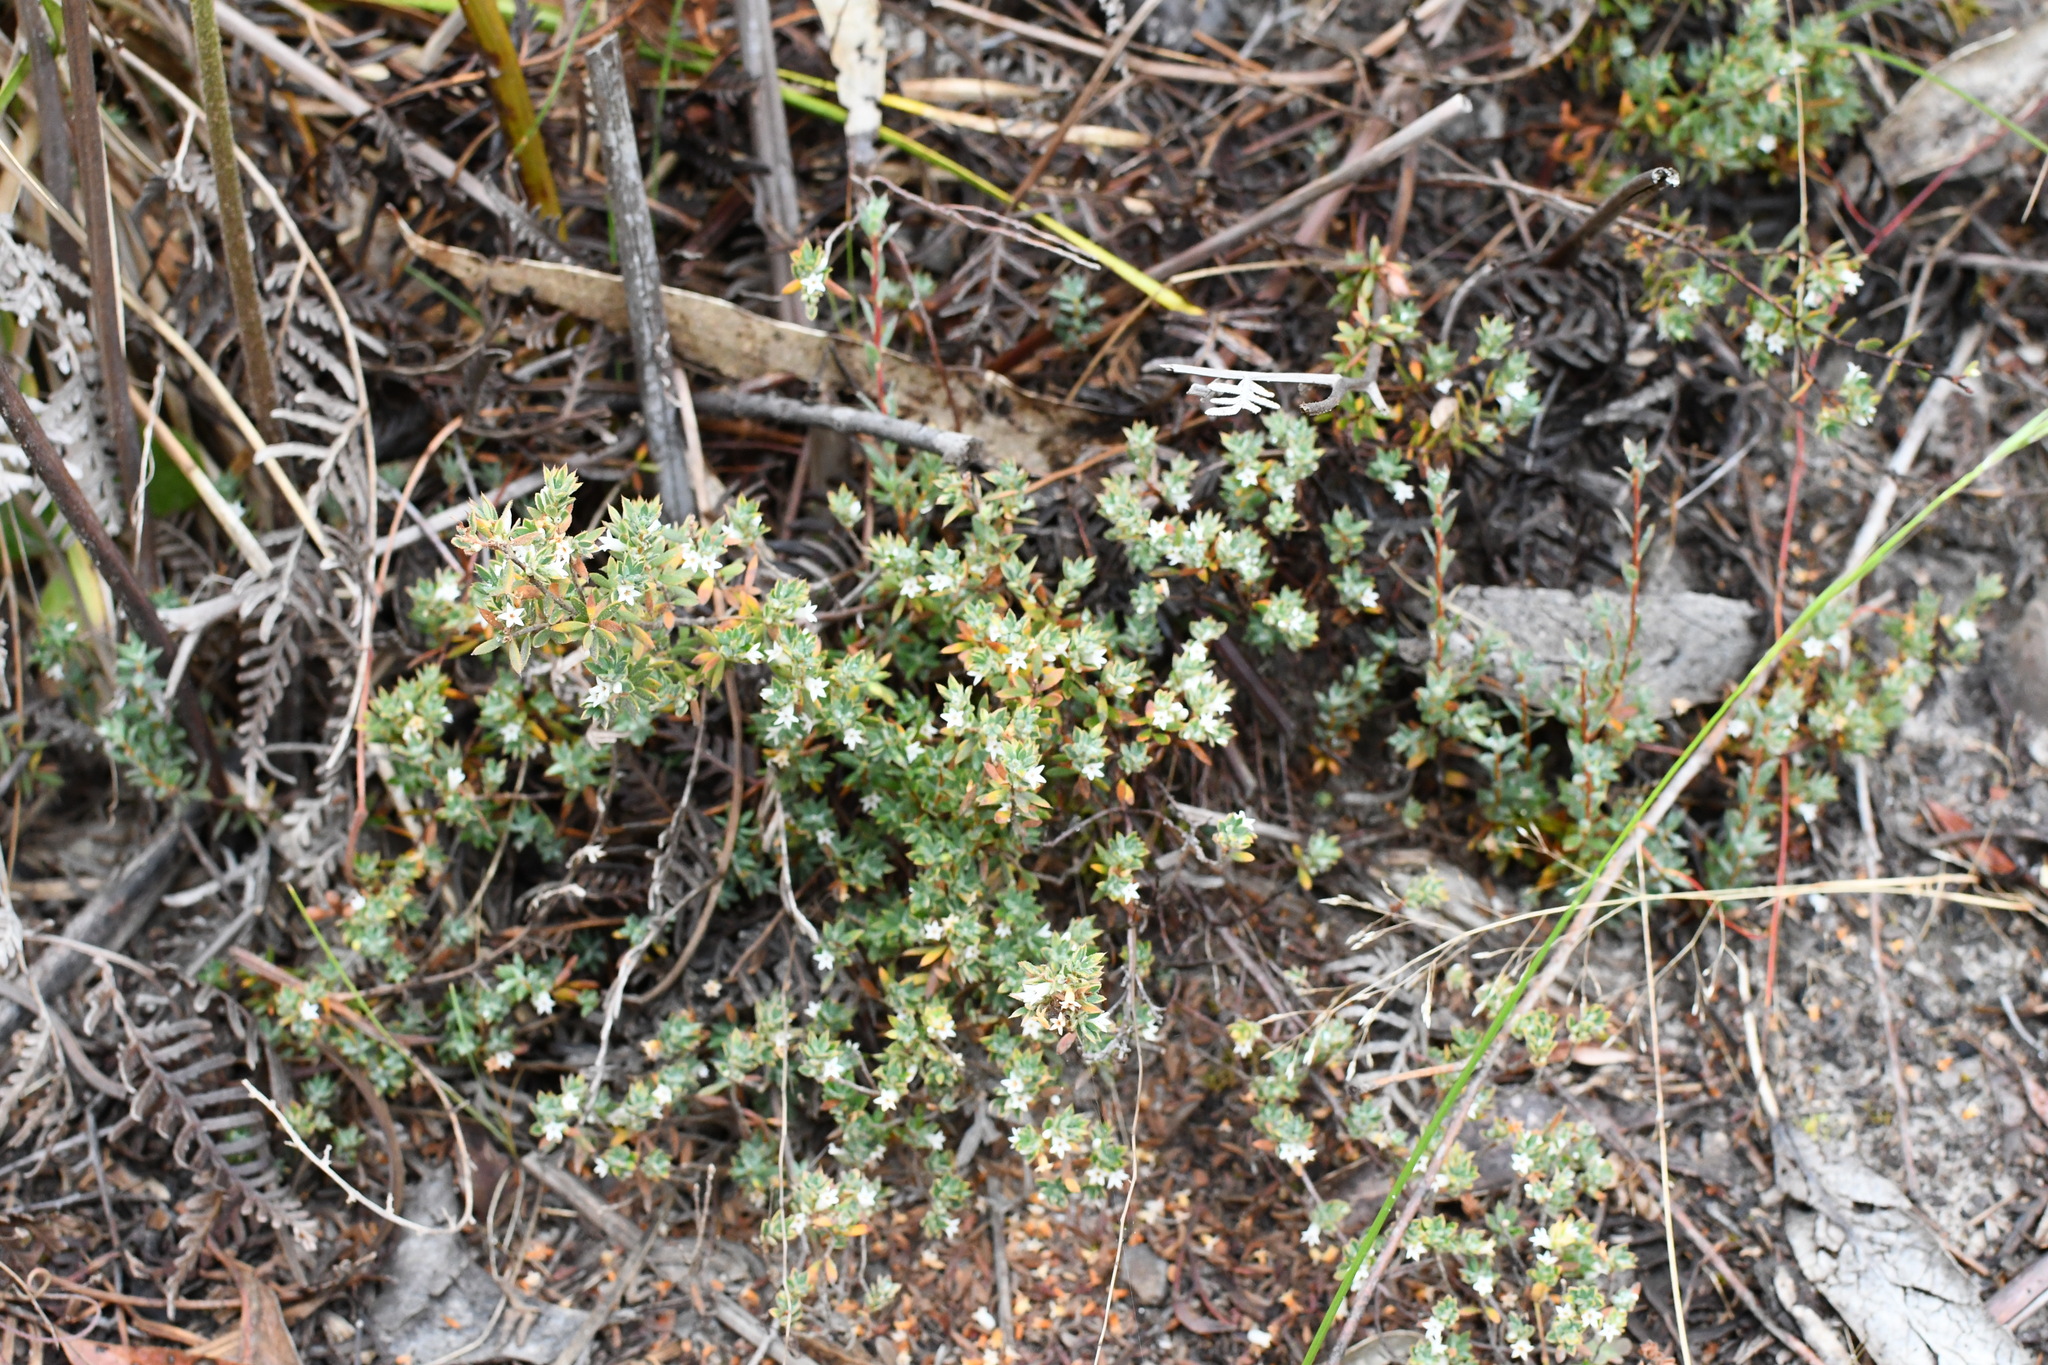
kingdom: Plantae
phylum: Tracheophyta
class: Magnoliopsida
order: Ericales
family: Ericaceae
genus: Brachyloma
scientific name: Brachyloma ciliatum
